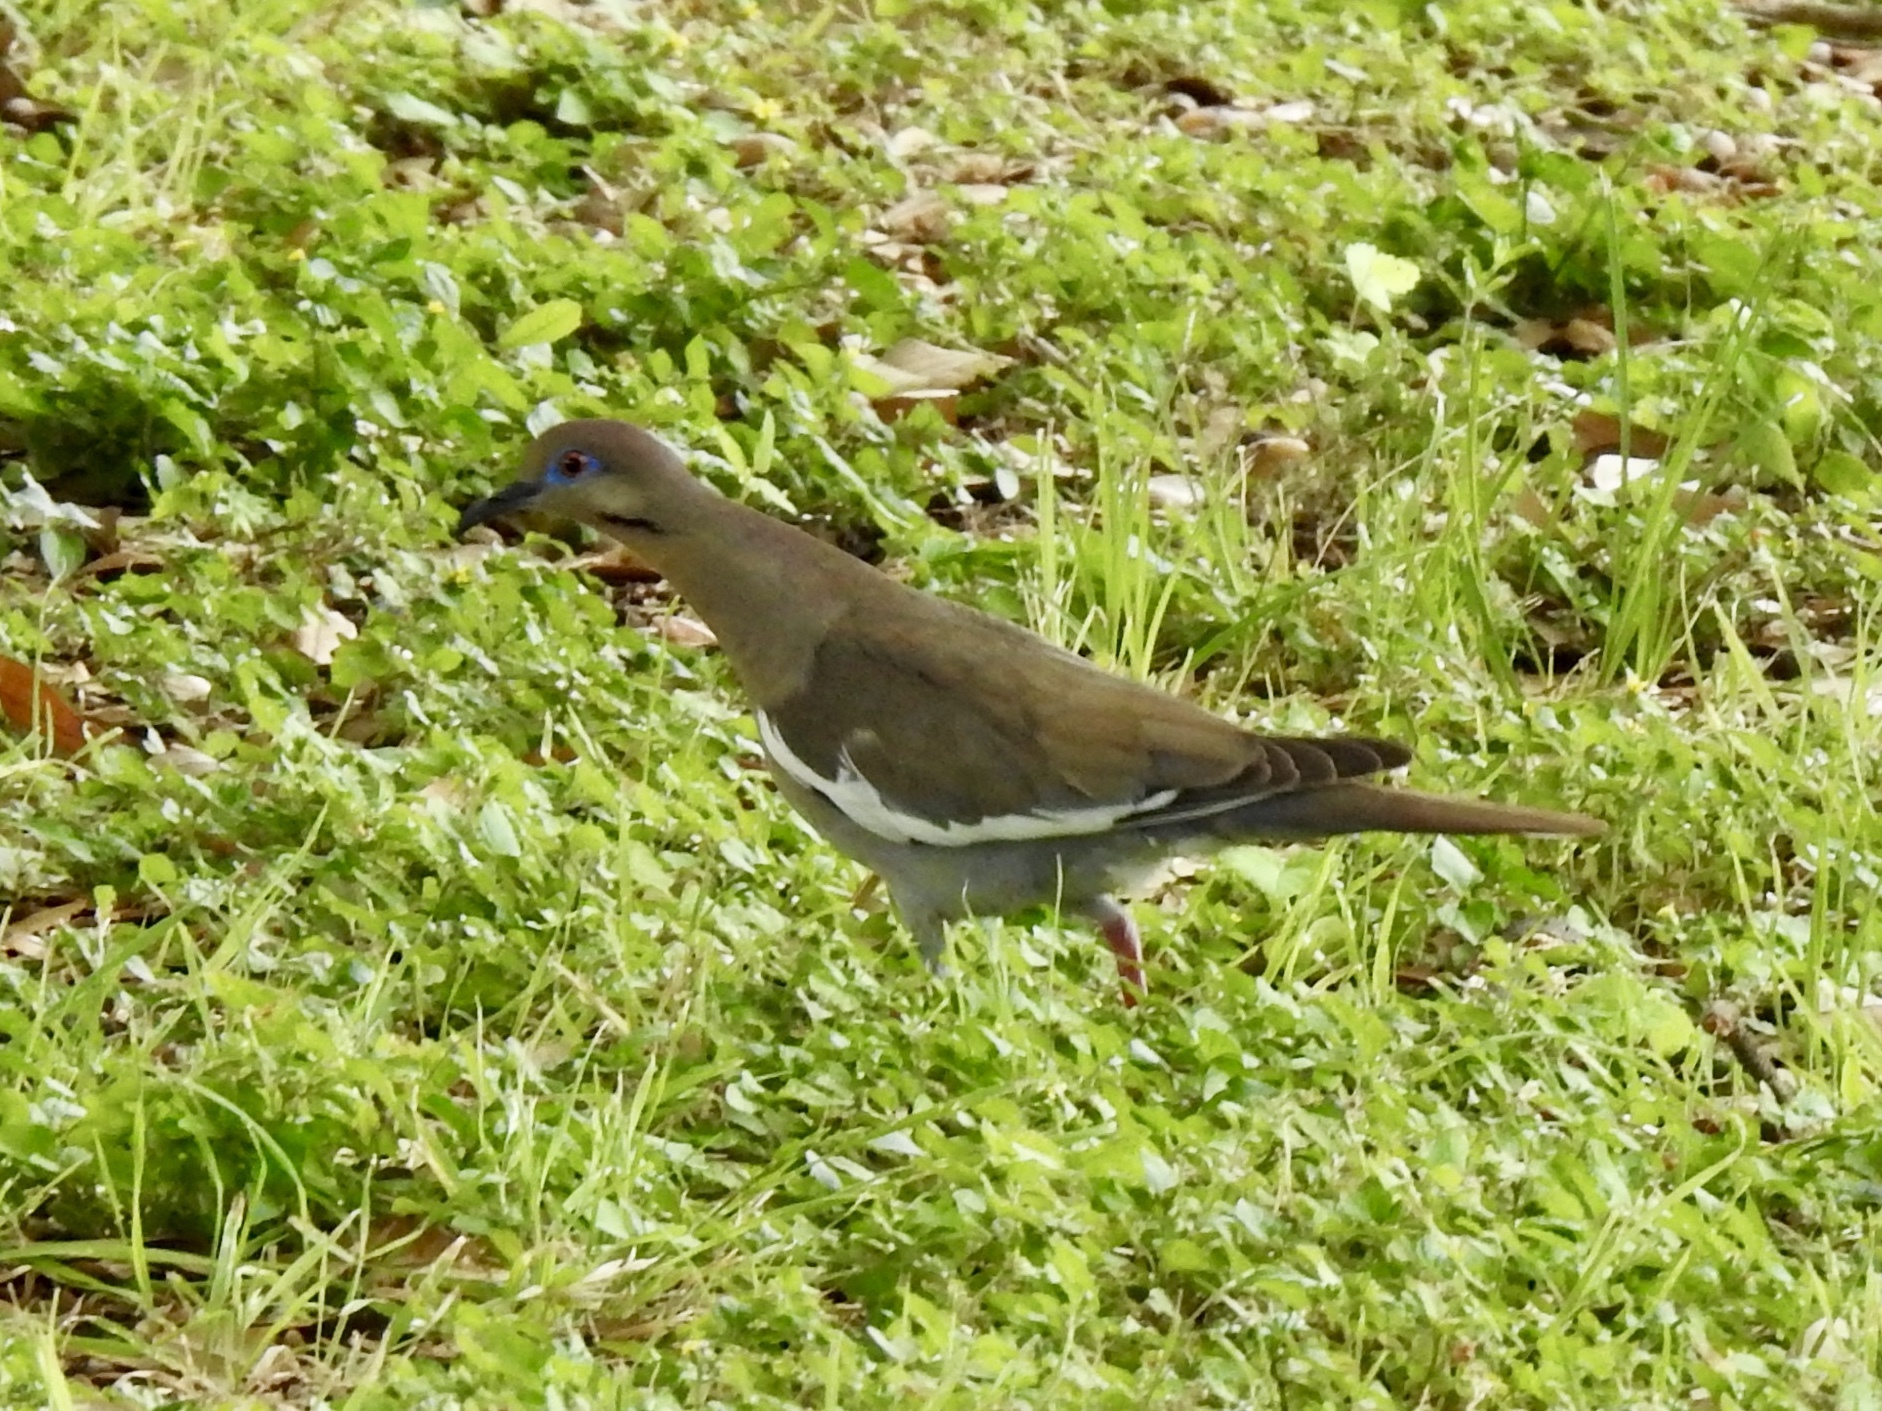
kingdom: Animalia
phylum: Chordata
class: Aves
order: Columbiformes
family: Columbidae
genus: Zenaida
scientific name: Zenaida asiatica
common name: White-winged dove
